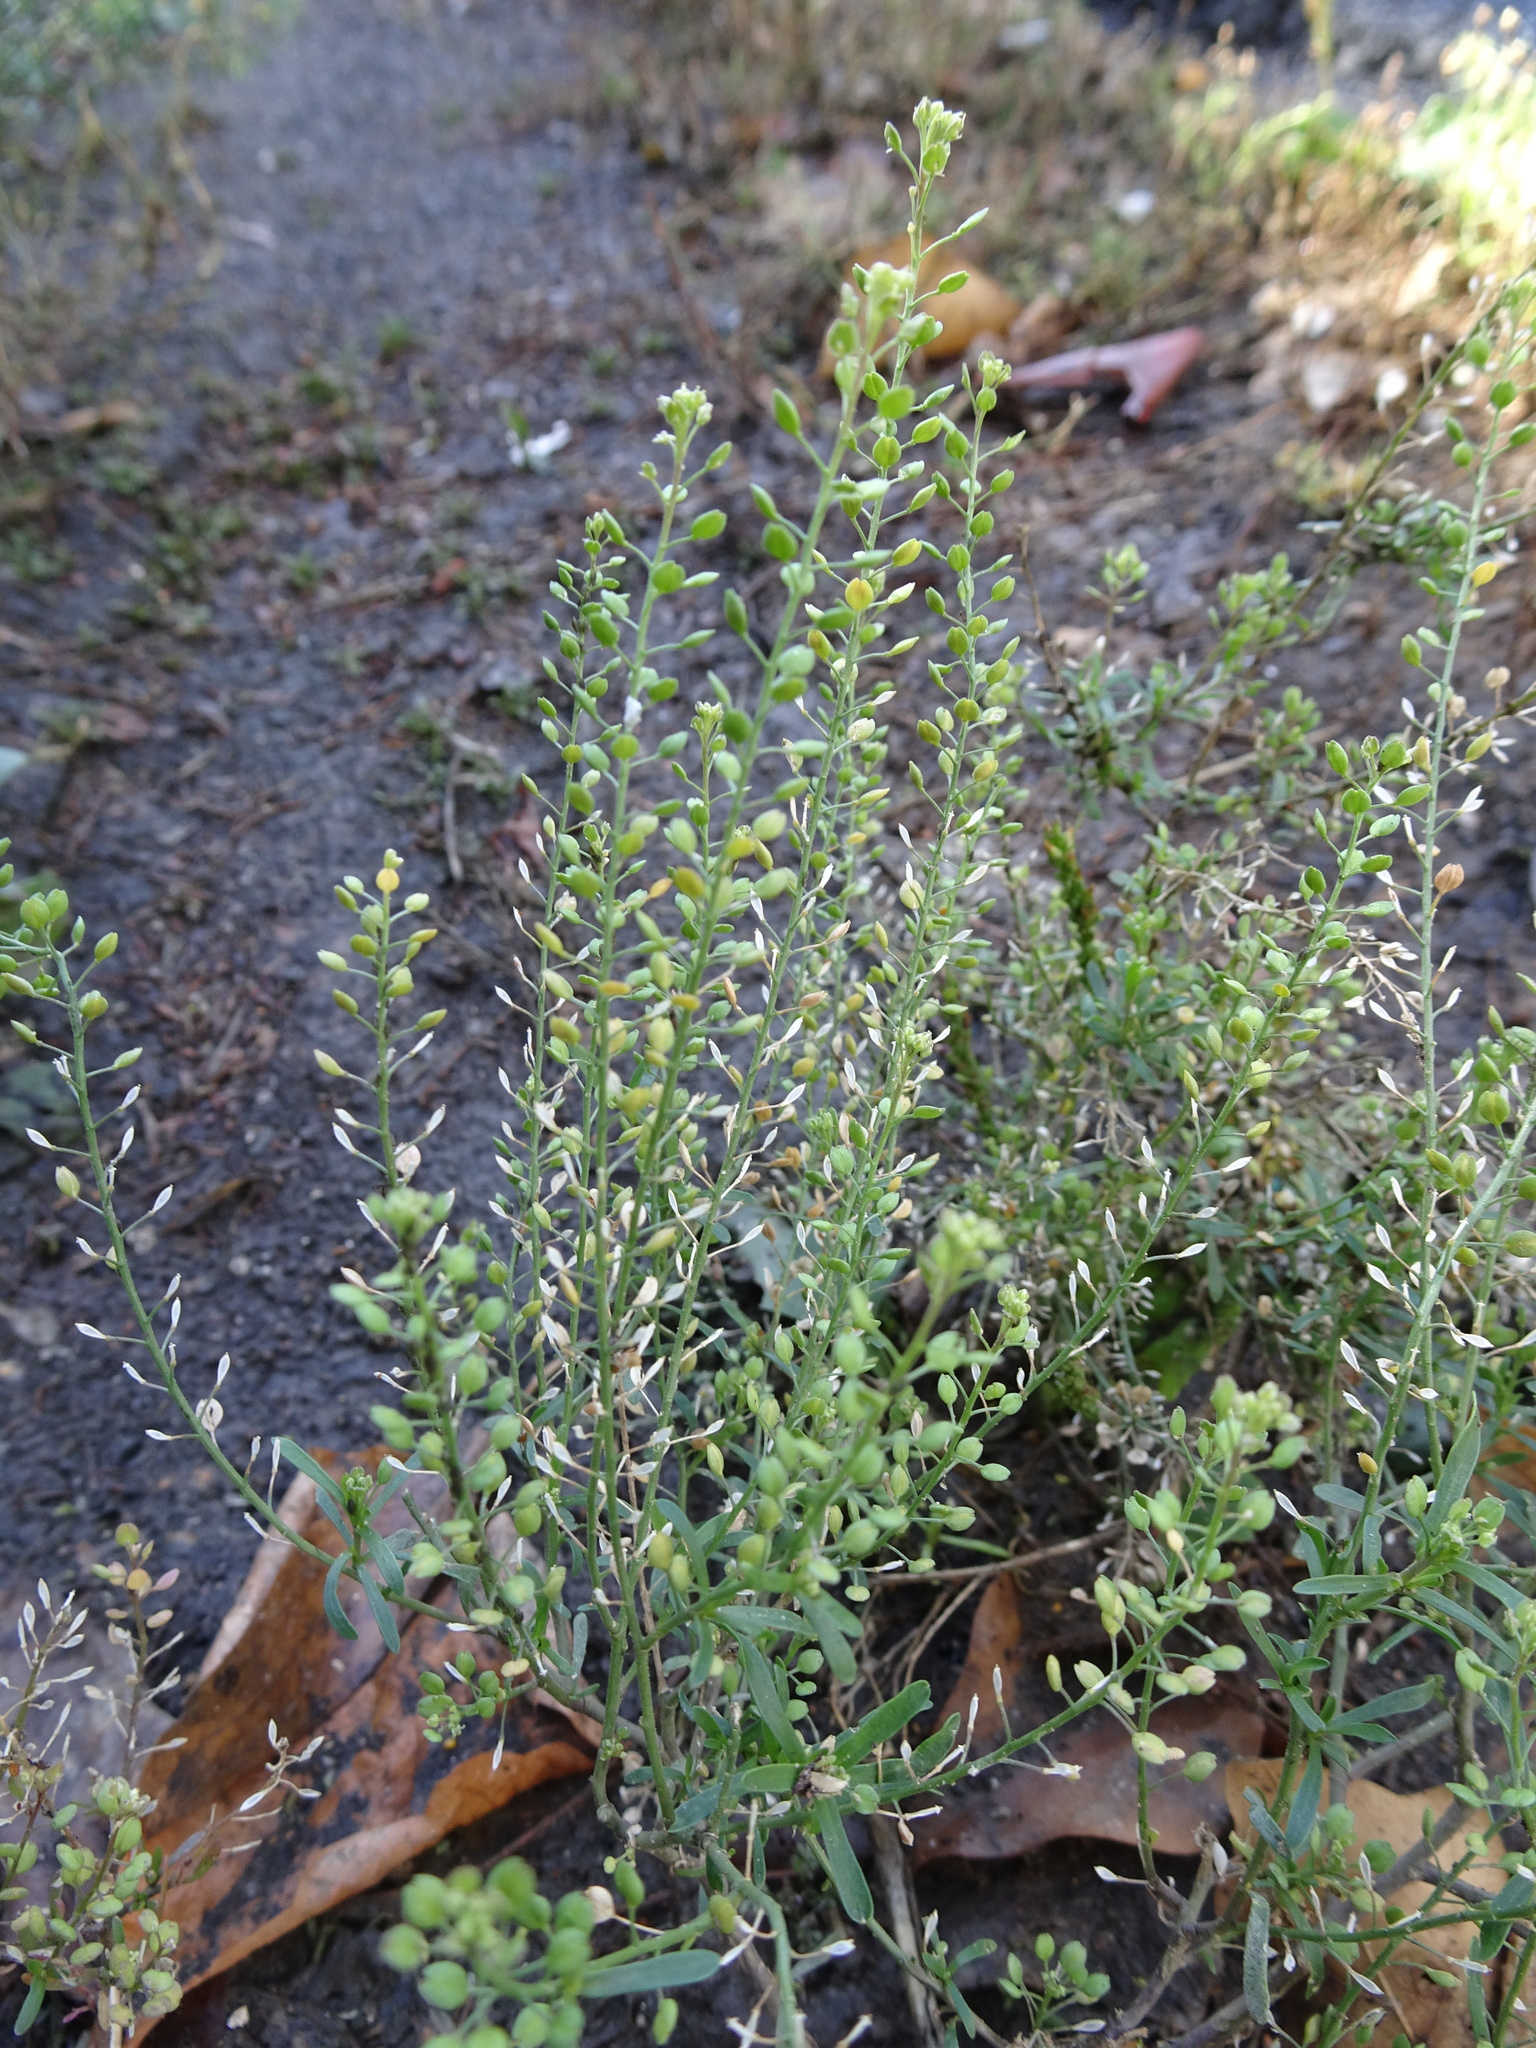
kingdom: Plantae
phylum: Tracheophyta
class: Magnoliopsida
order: Brassicales
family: Brassicaceae
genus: Lepidium
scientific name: Lepidium ruderale
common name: Narrow-leaved pepperwort
